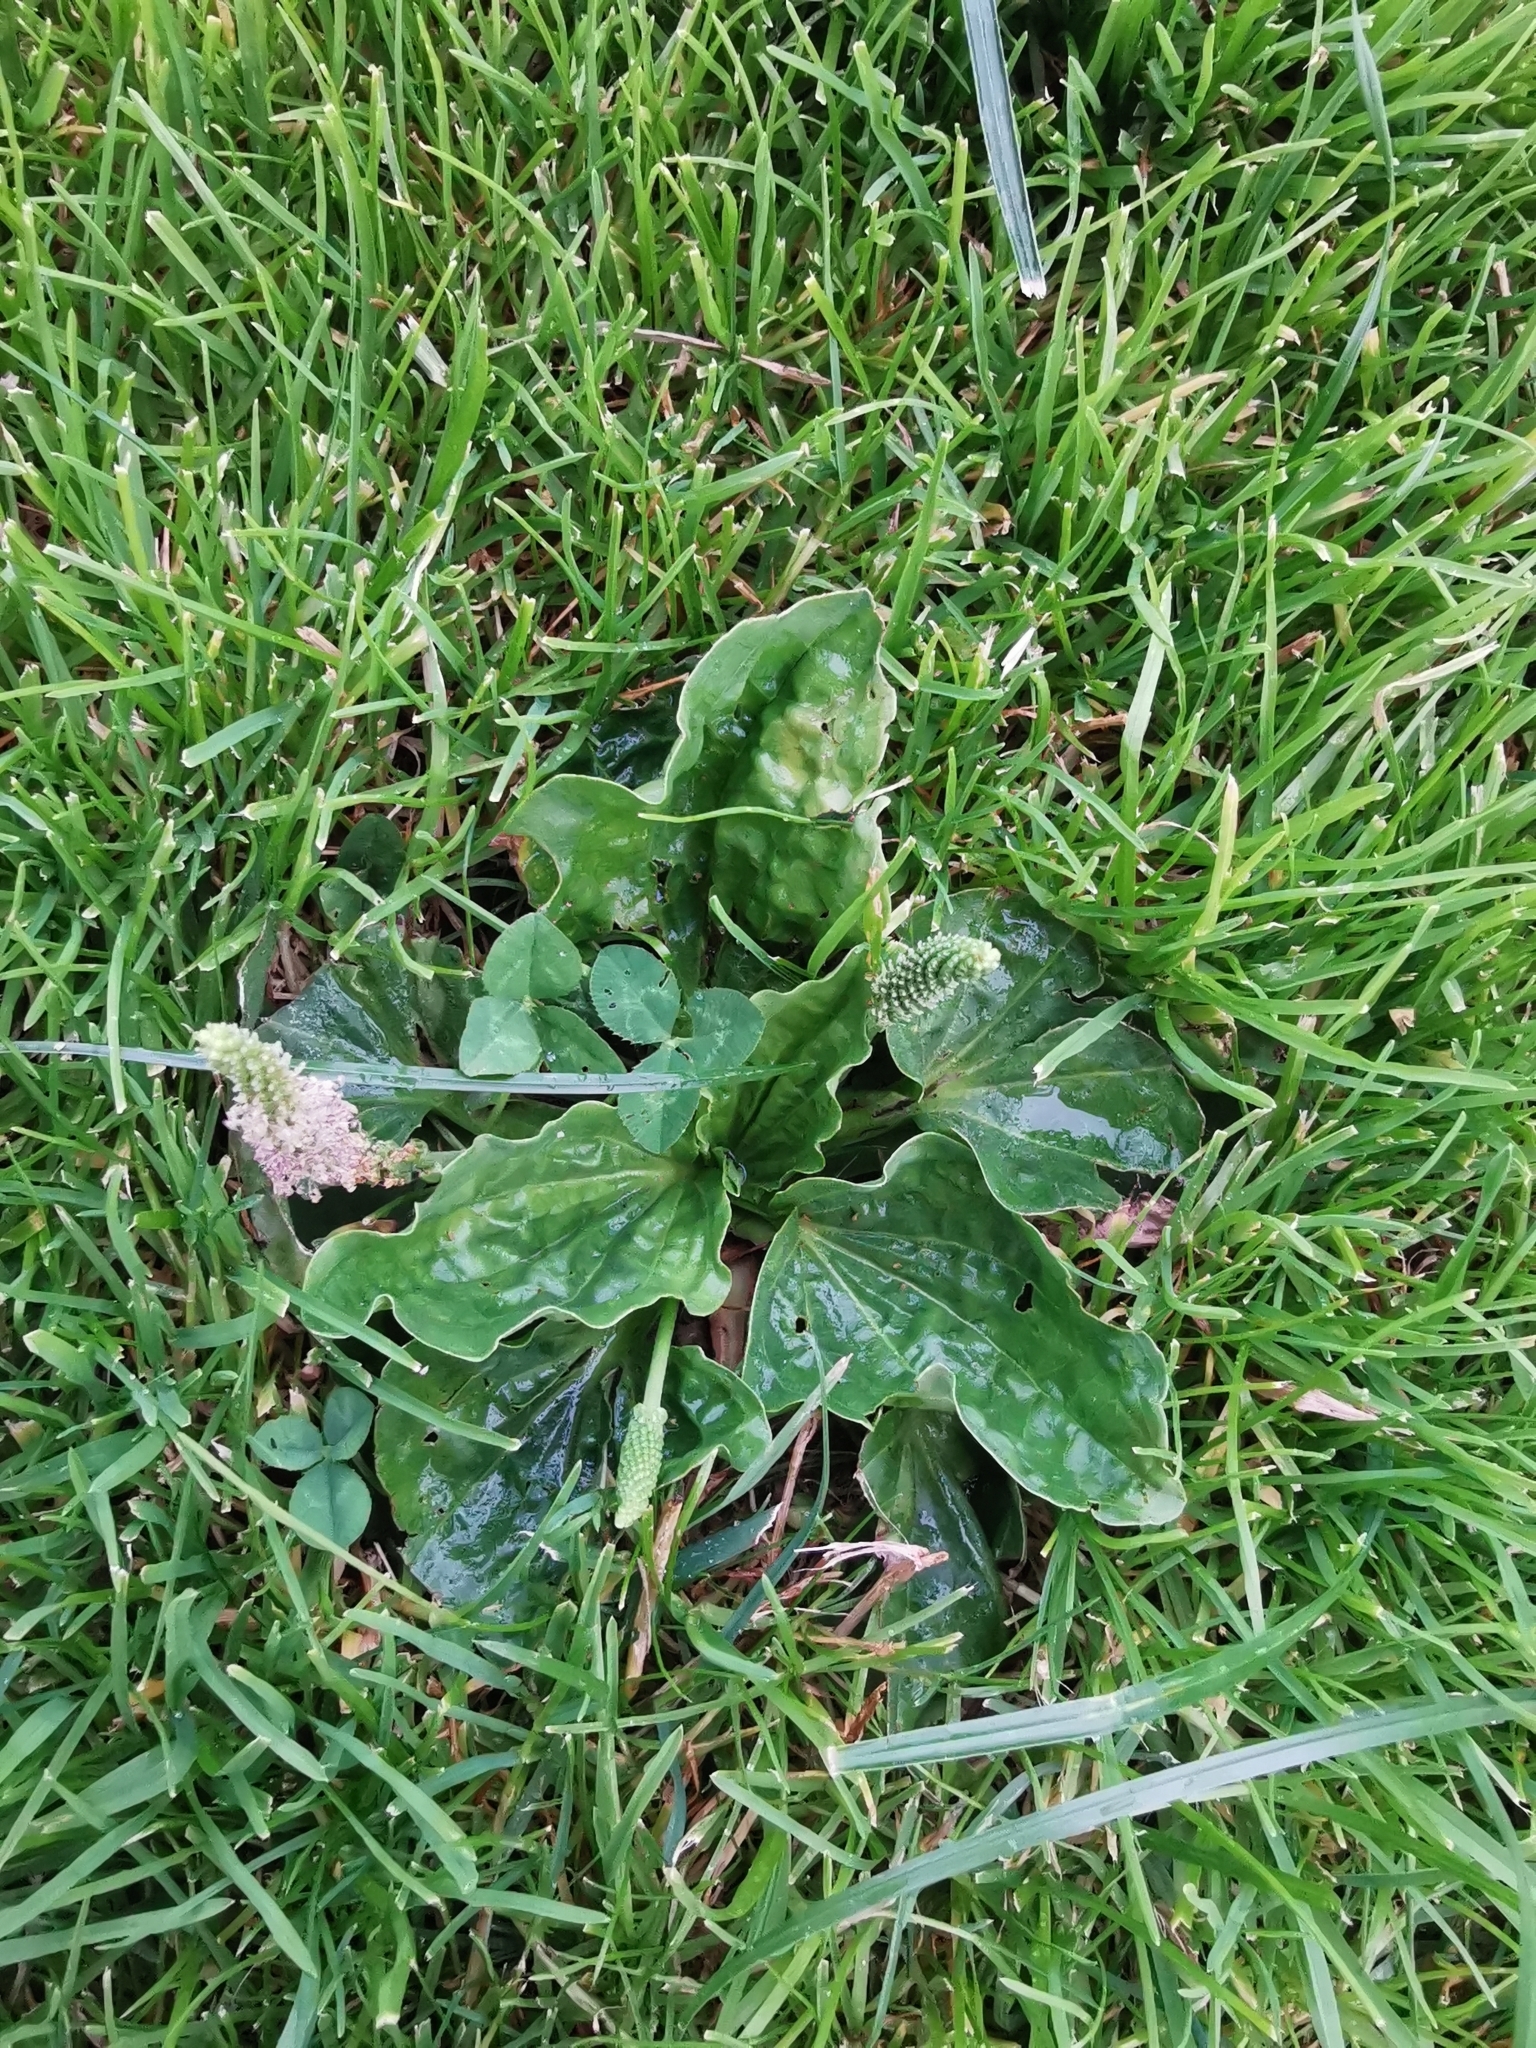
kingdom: Plantae
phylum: Tracheophyta
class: Magnoliopsida
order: Lamiales
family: Plantaginaceae
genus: Plantago
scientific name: Plantago major
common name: Common plantain
